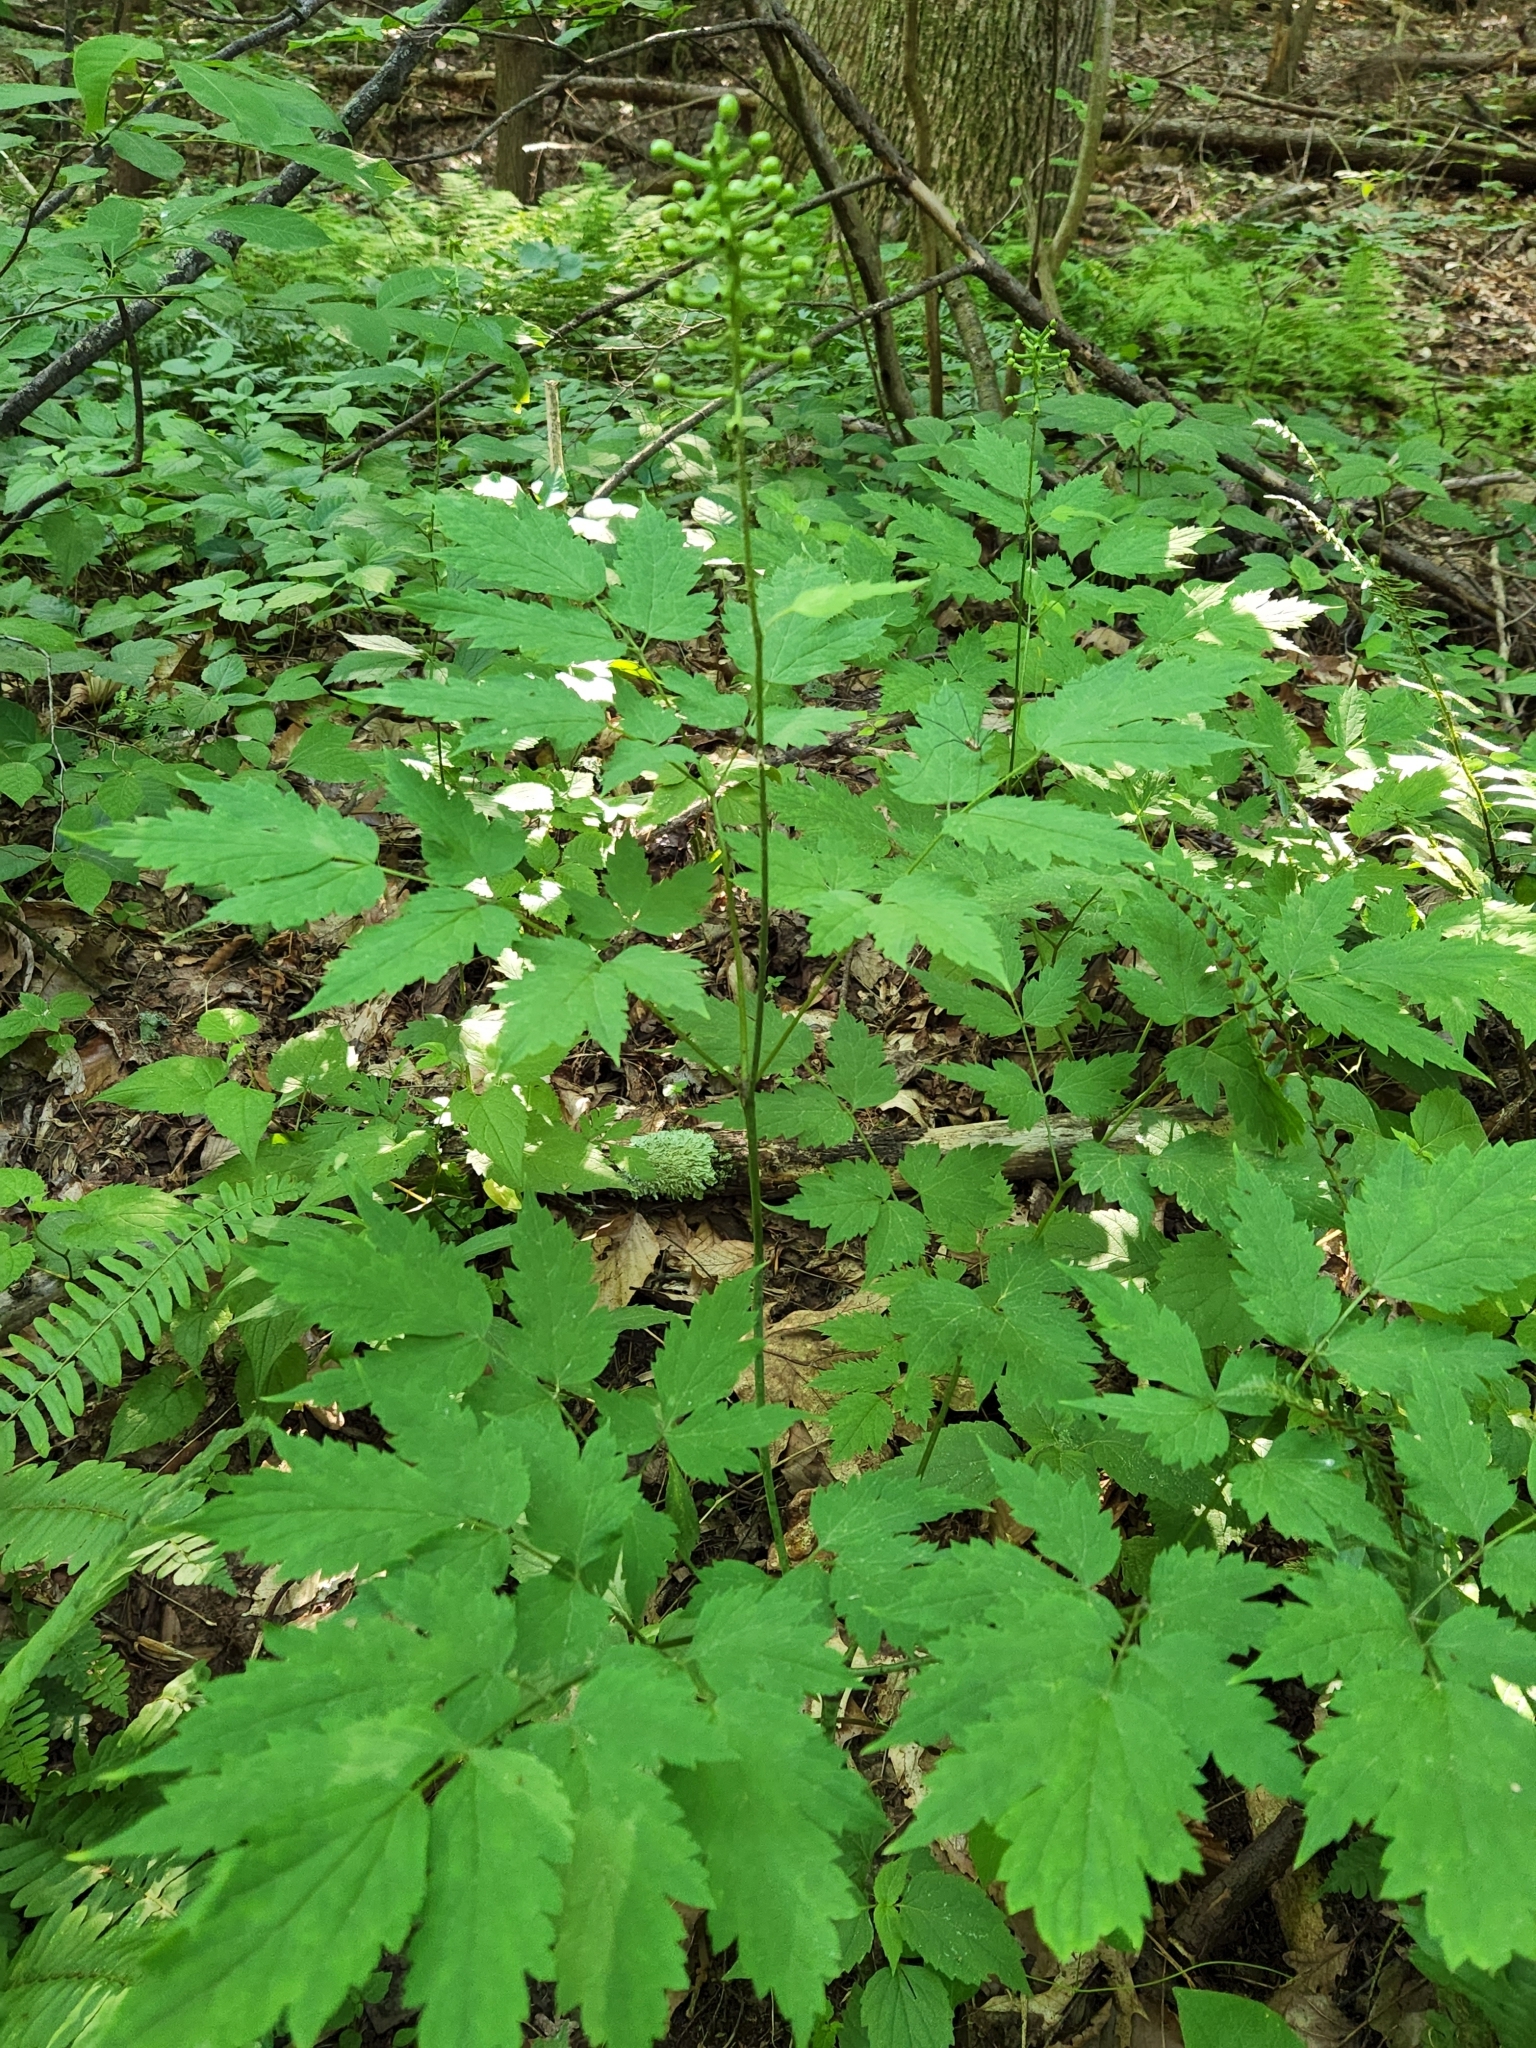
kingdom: Plantae
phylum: Tracheophyta
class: Magnoliopsida
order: Ranunculales
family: Ranunculaceae
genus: Actaea
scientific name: Actaea pachypoda
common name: Doll's-eyes
